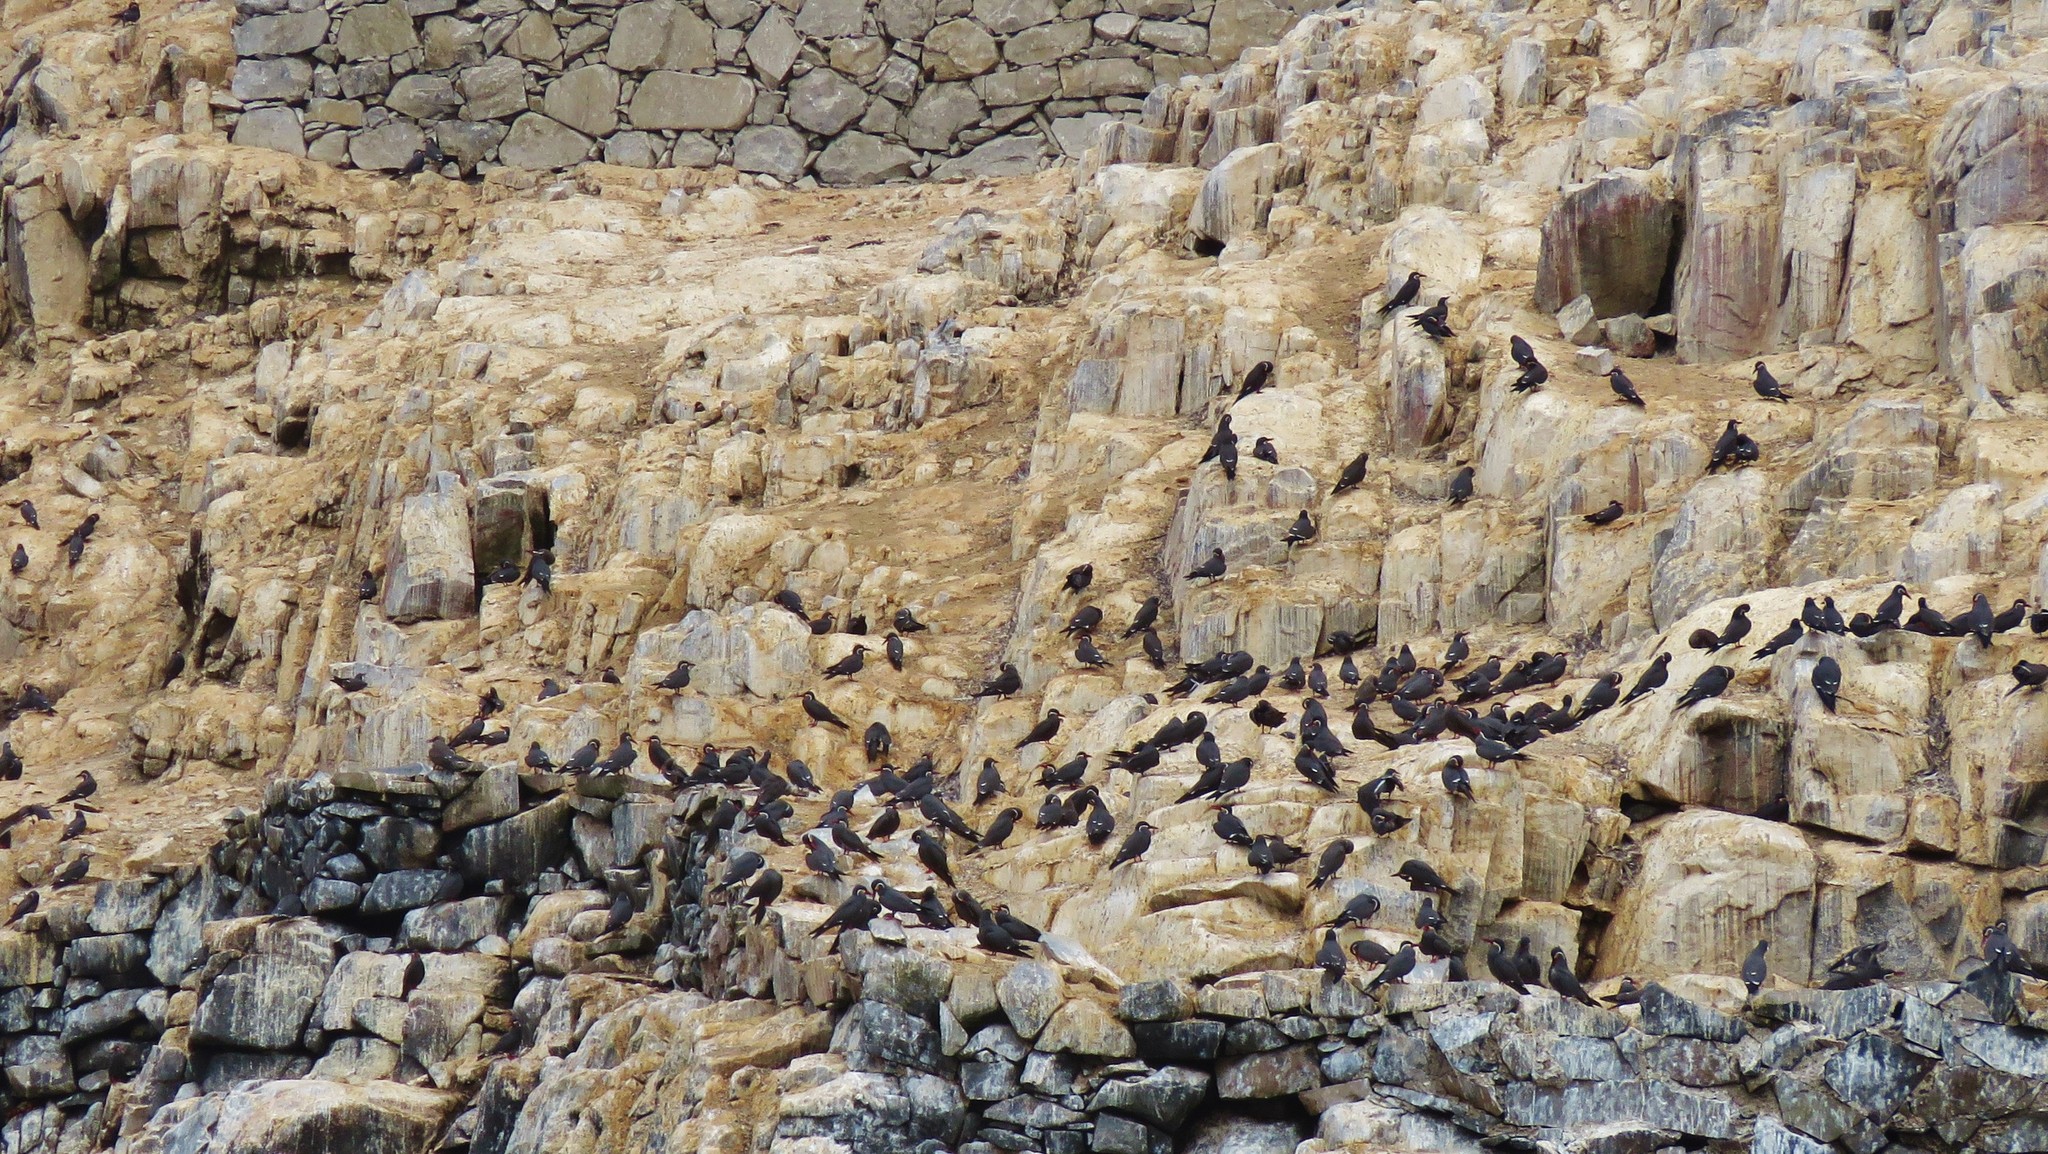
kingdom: Animalia
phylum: Chordata
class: Aves
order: Charadriiformes
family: Laridae
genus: Larosterna
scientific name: Larosterna inca
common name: Inca tern
